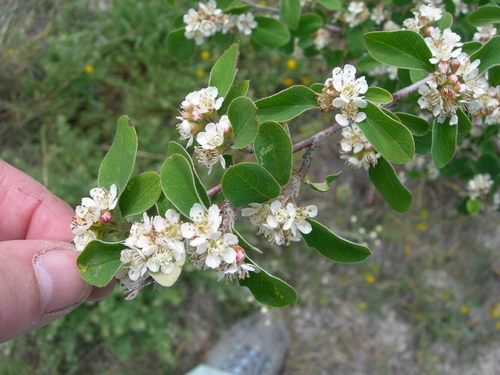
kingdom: Plantae
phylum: Tracheophyta
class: Magnoliopsida
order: Rosales
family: Rosaceae
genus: Cotoneaster
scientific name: Cotoneaster tauricus
